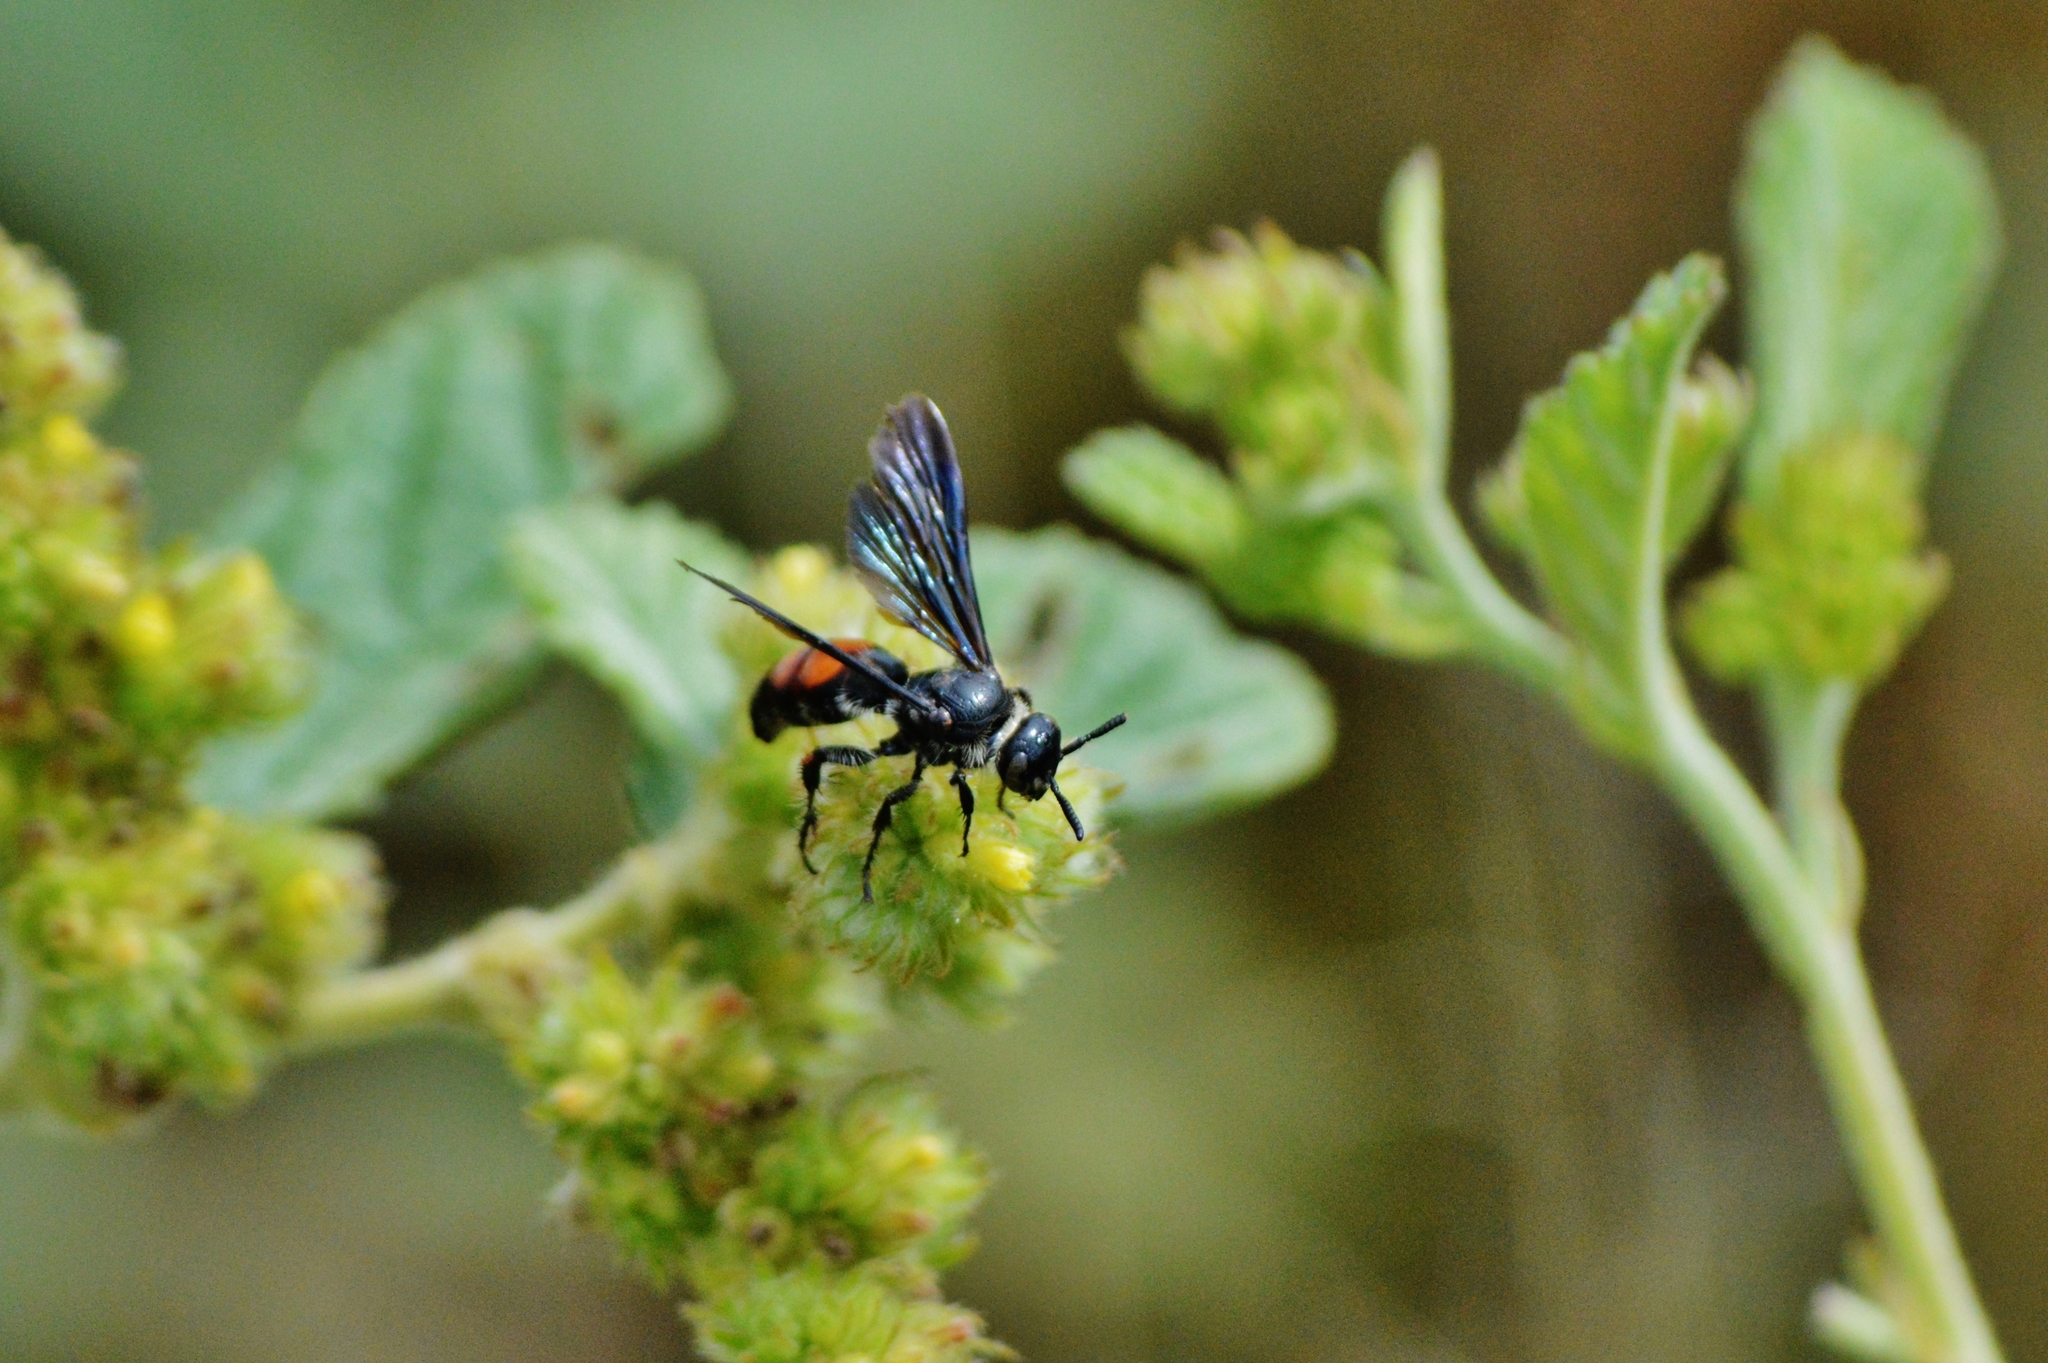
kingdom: Animalia
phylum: Arthropoda
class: Insecta
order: Hymenoptera
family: Scoliidae
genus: Dielis
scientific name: Dielis dorsata
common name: Scoliid wasp
